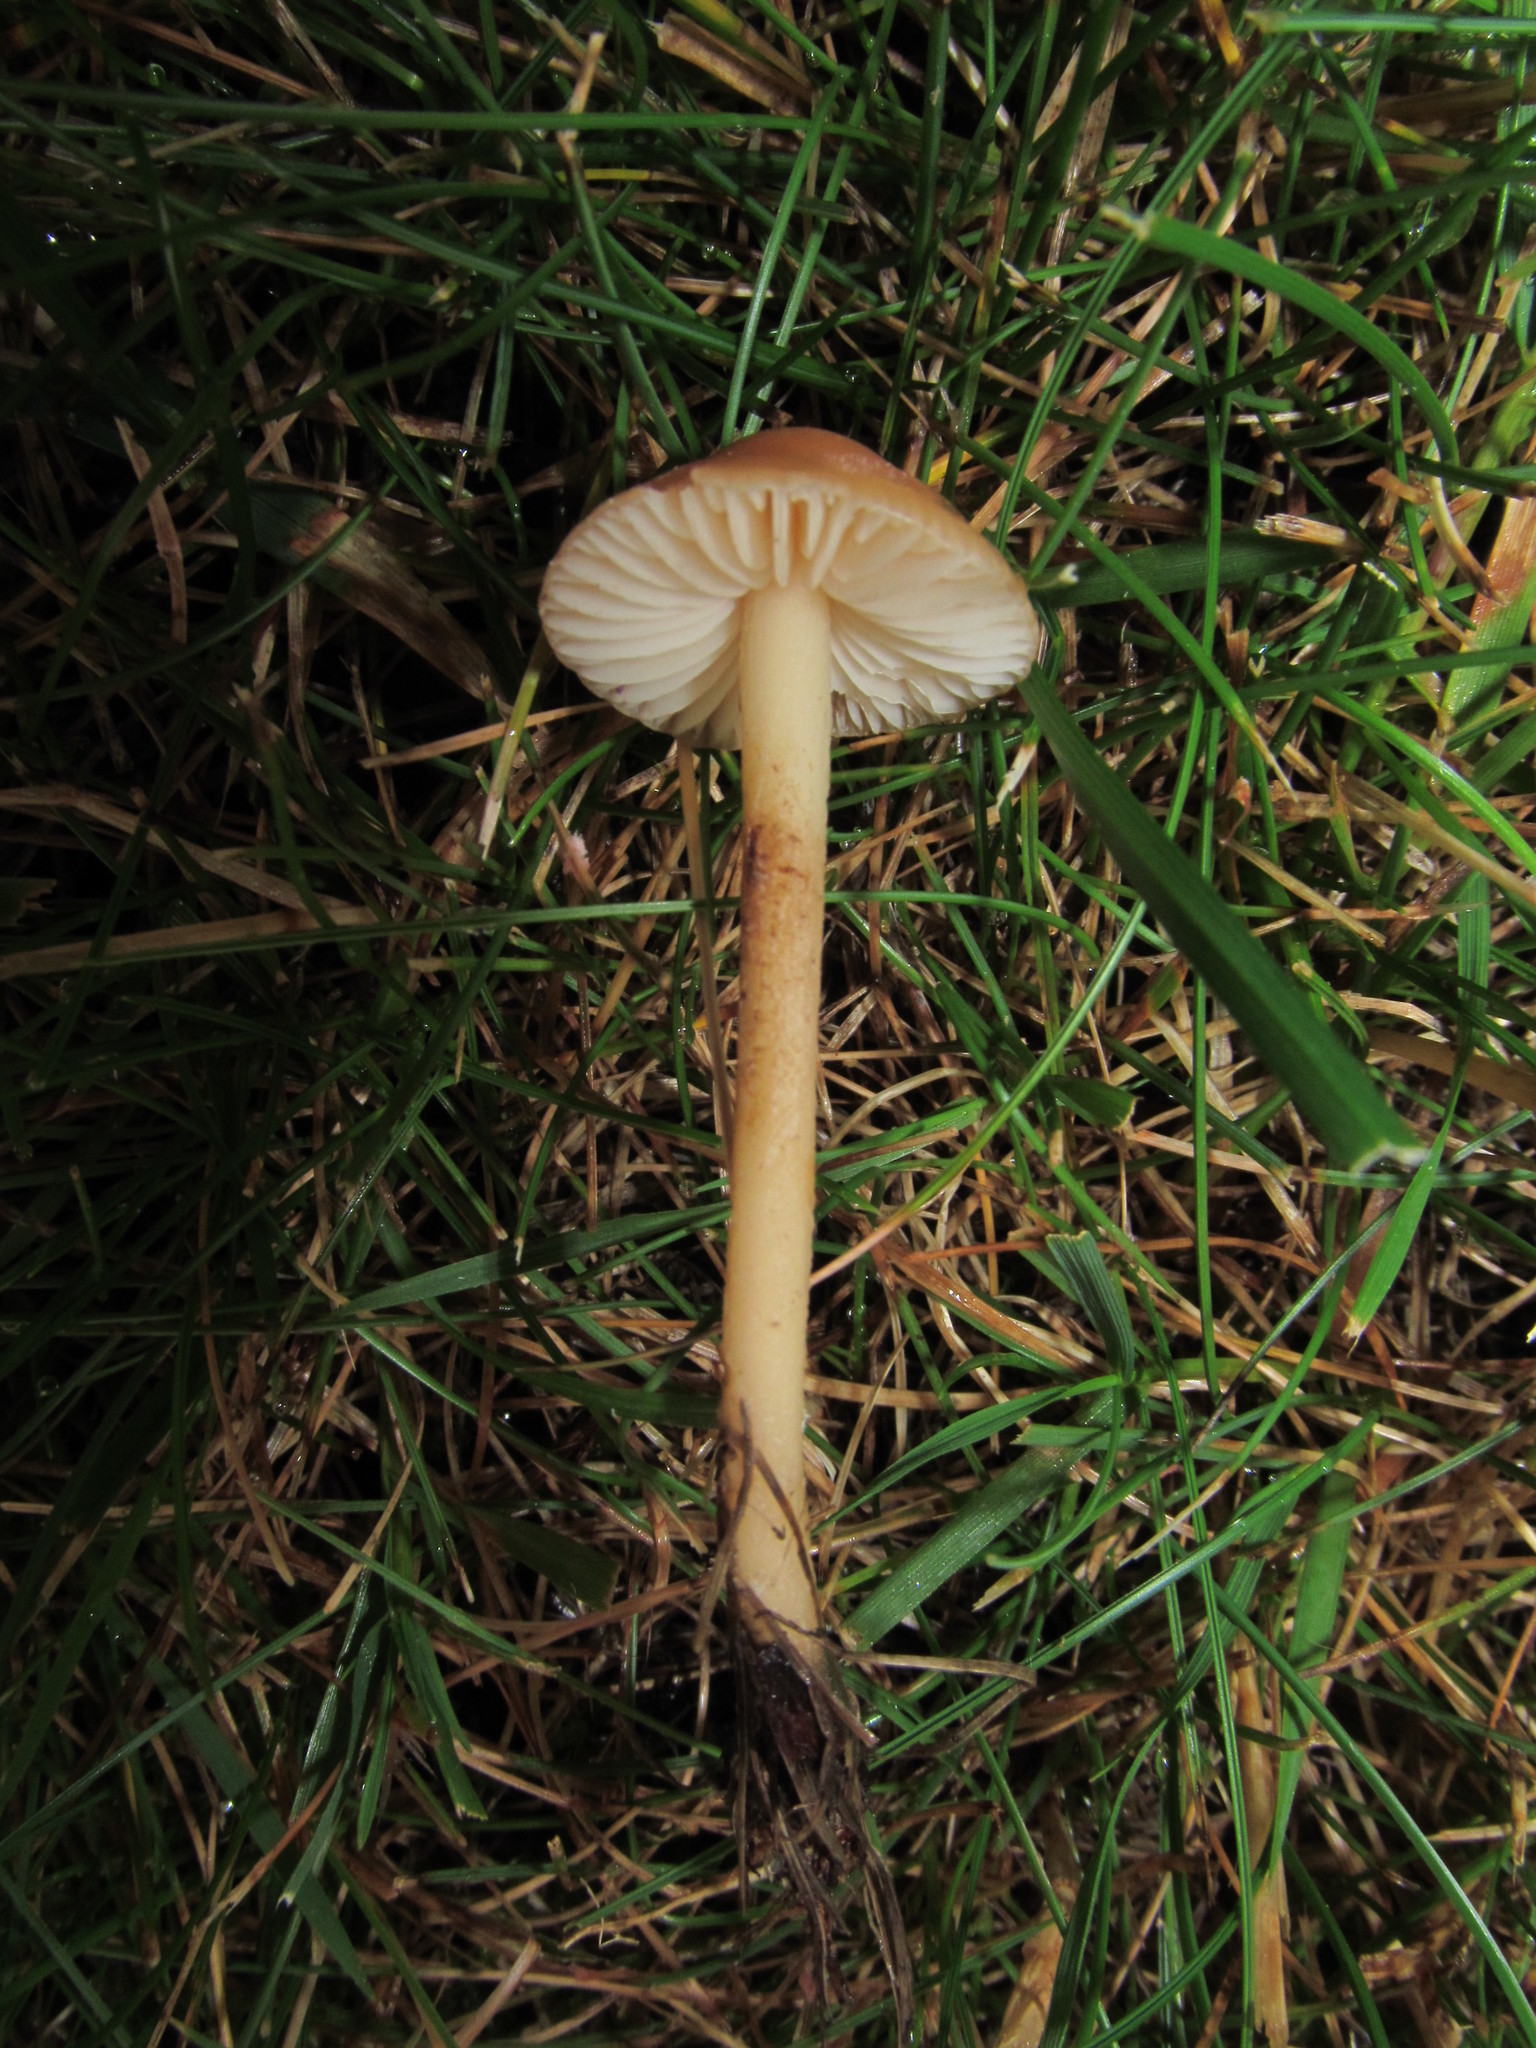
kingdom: Fungi
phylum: Basidiomycota
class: Agaricomycetes
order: Agaricales
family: Marasmiaceae
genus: Marasmius
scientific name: Marasmius oreades
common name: Fairy ring champignon
